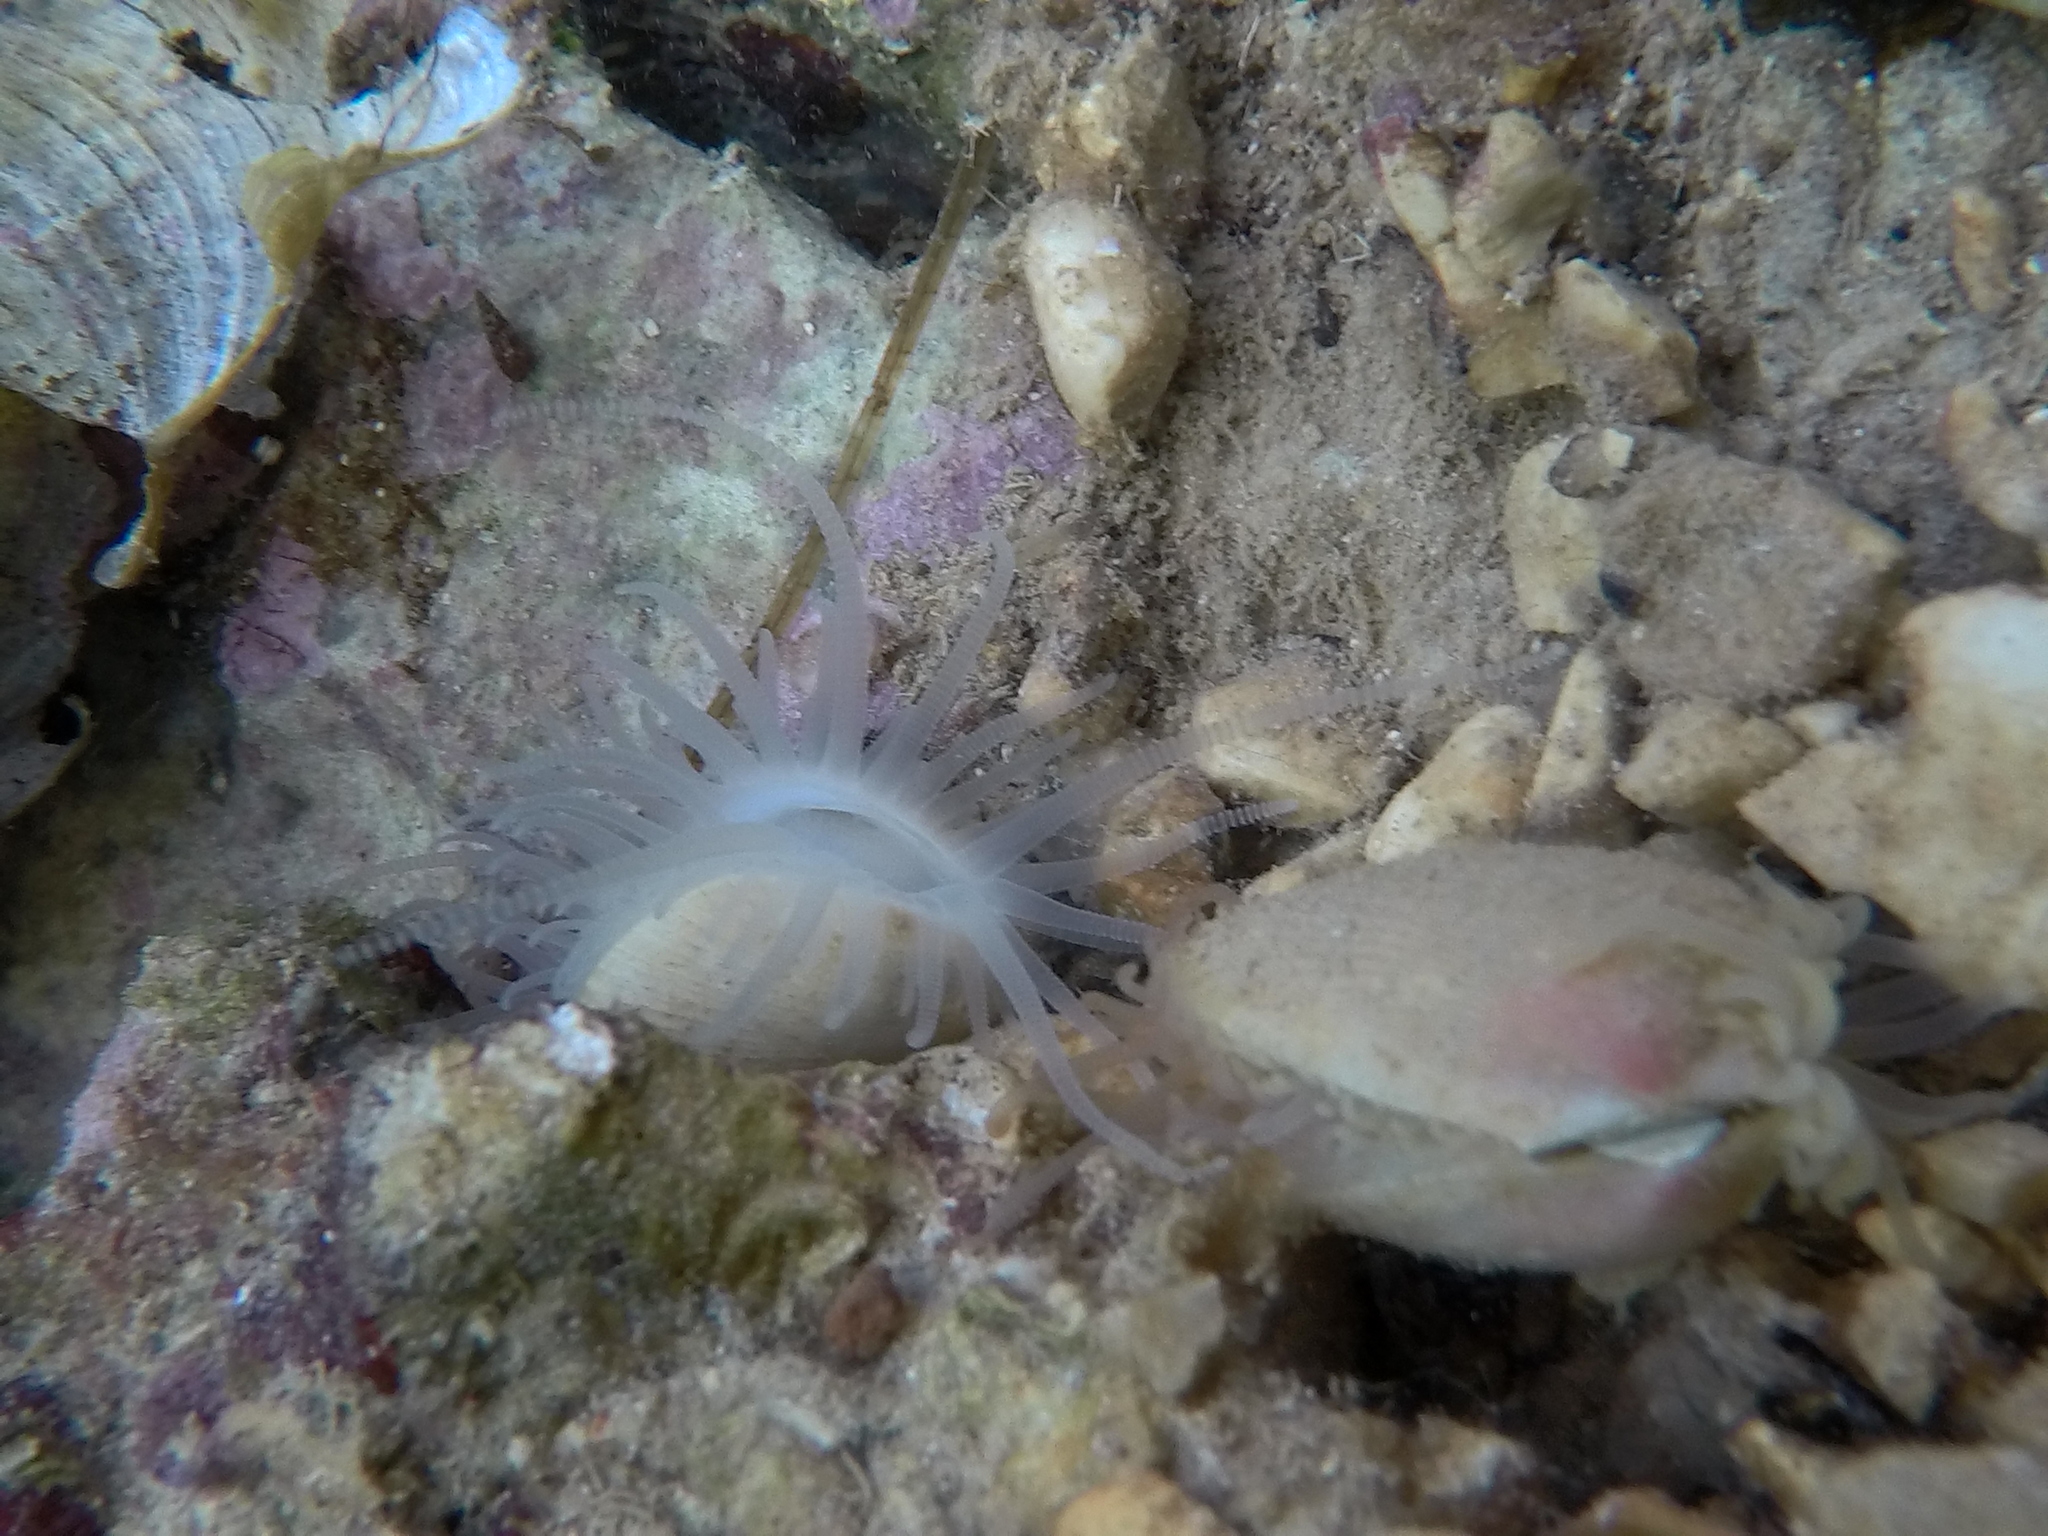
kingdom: Animalia
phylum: Mollusca
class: Bivalvia
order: Limida
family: Limidae
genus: Limaria
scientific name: Limaria tuberculata
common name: File shell
